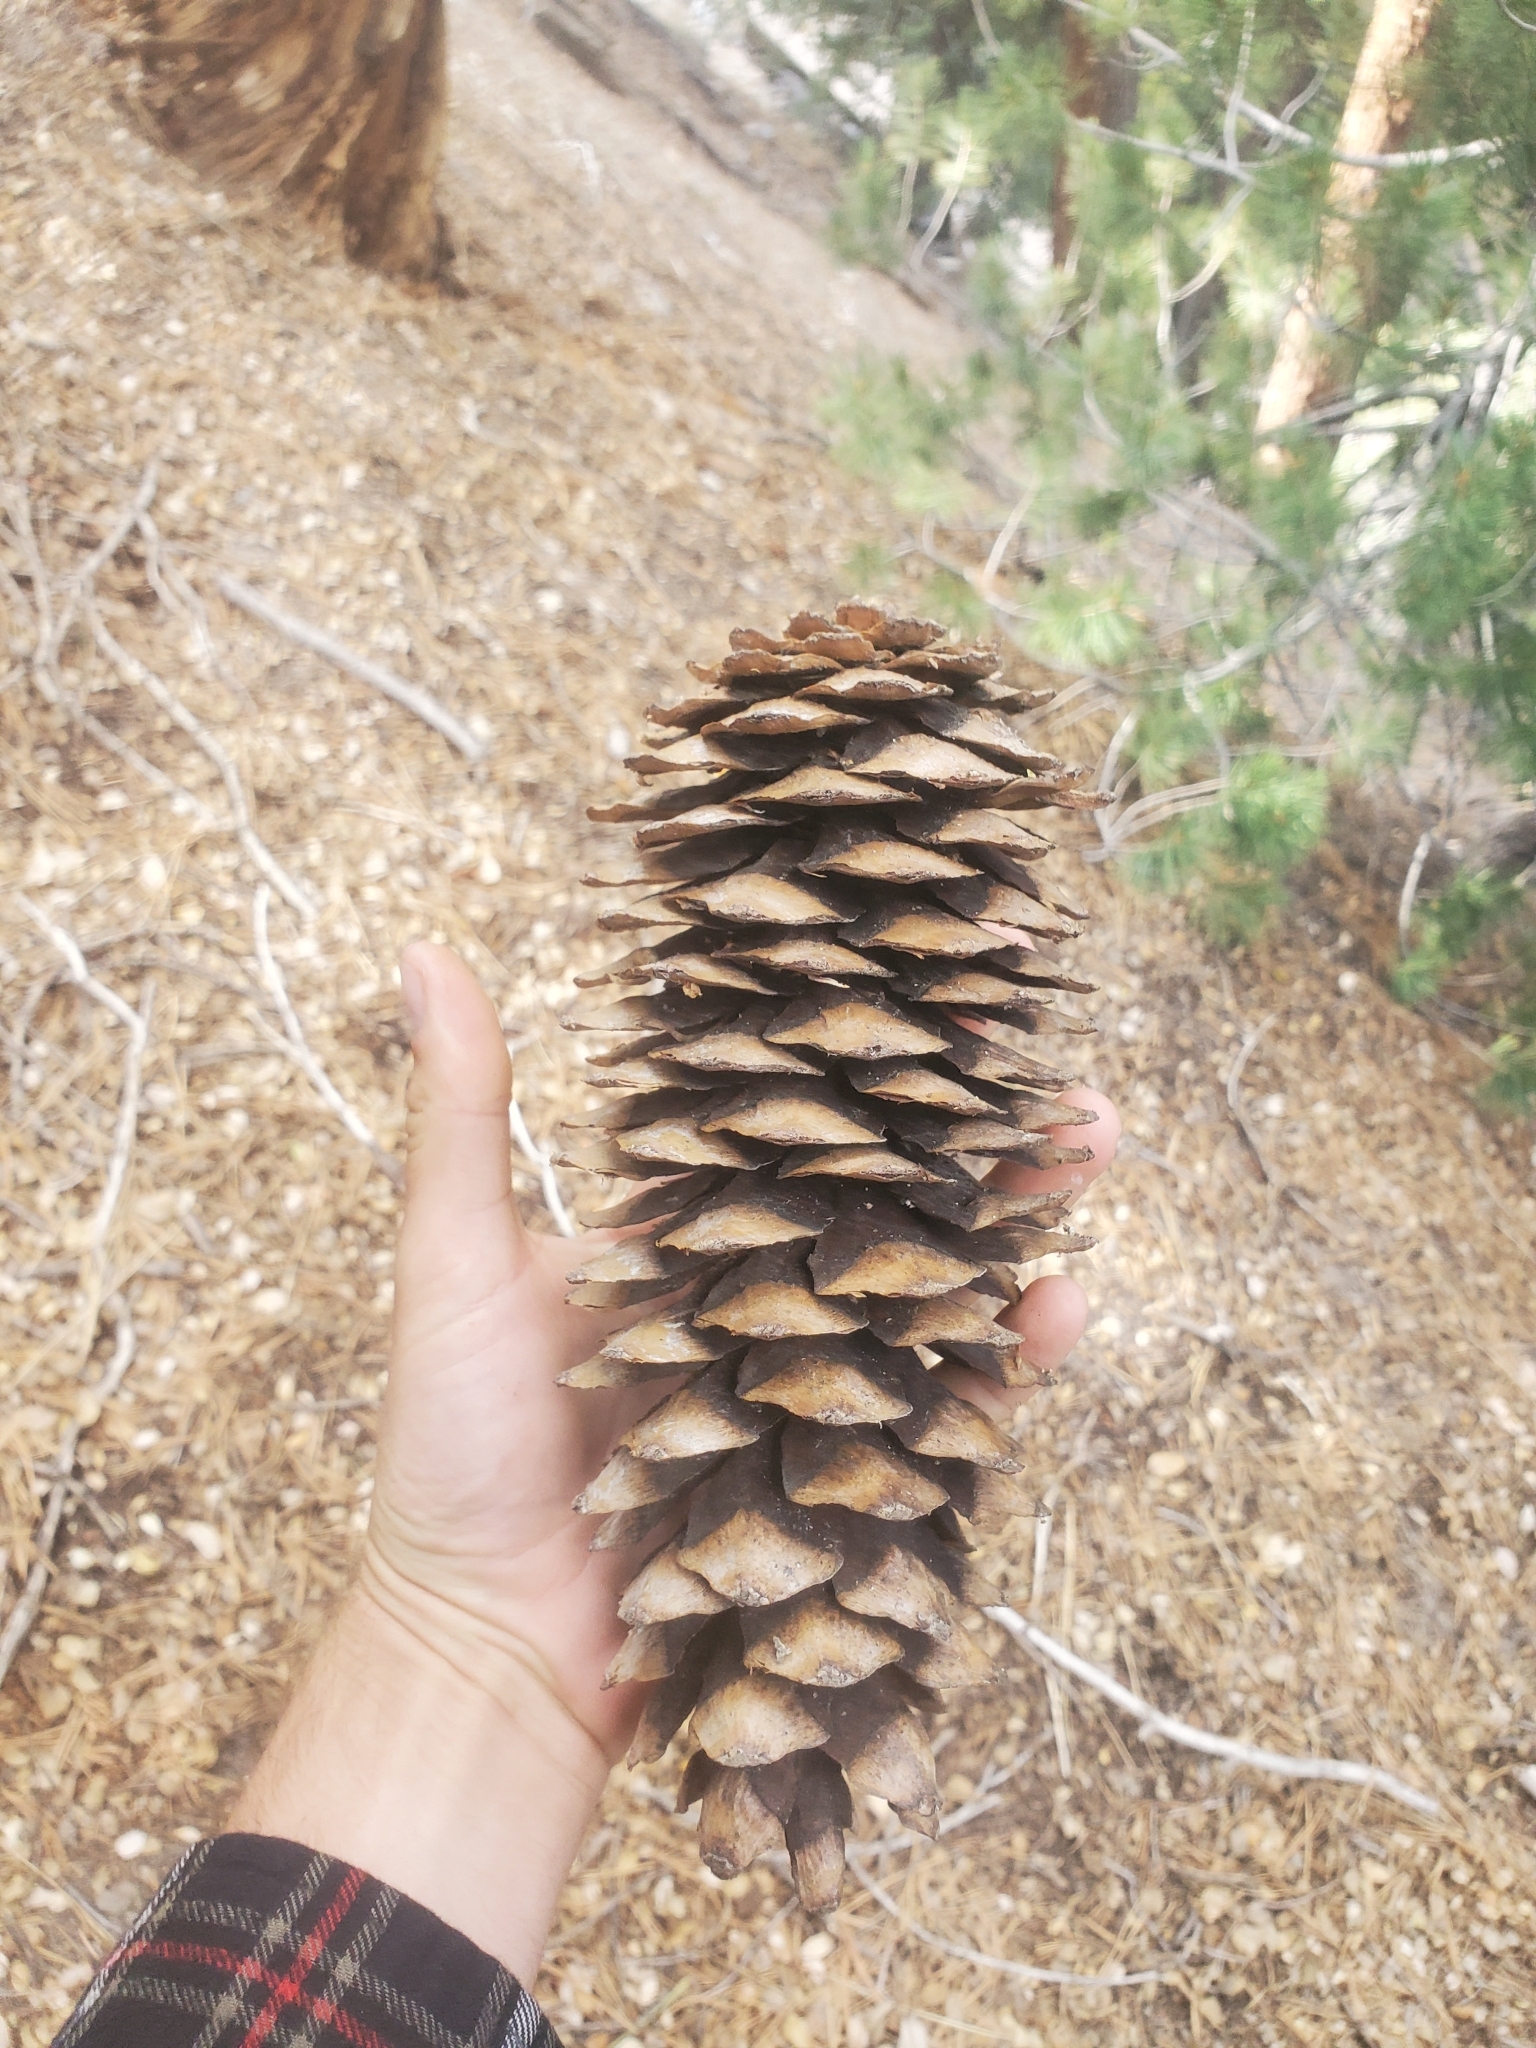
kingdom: Plantae
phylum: Tracheophyta
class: Pinopsida
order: Pinales
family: Pinaceae
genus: Pinus
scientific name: Pinus lambertiana
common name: Sugar pine
